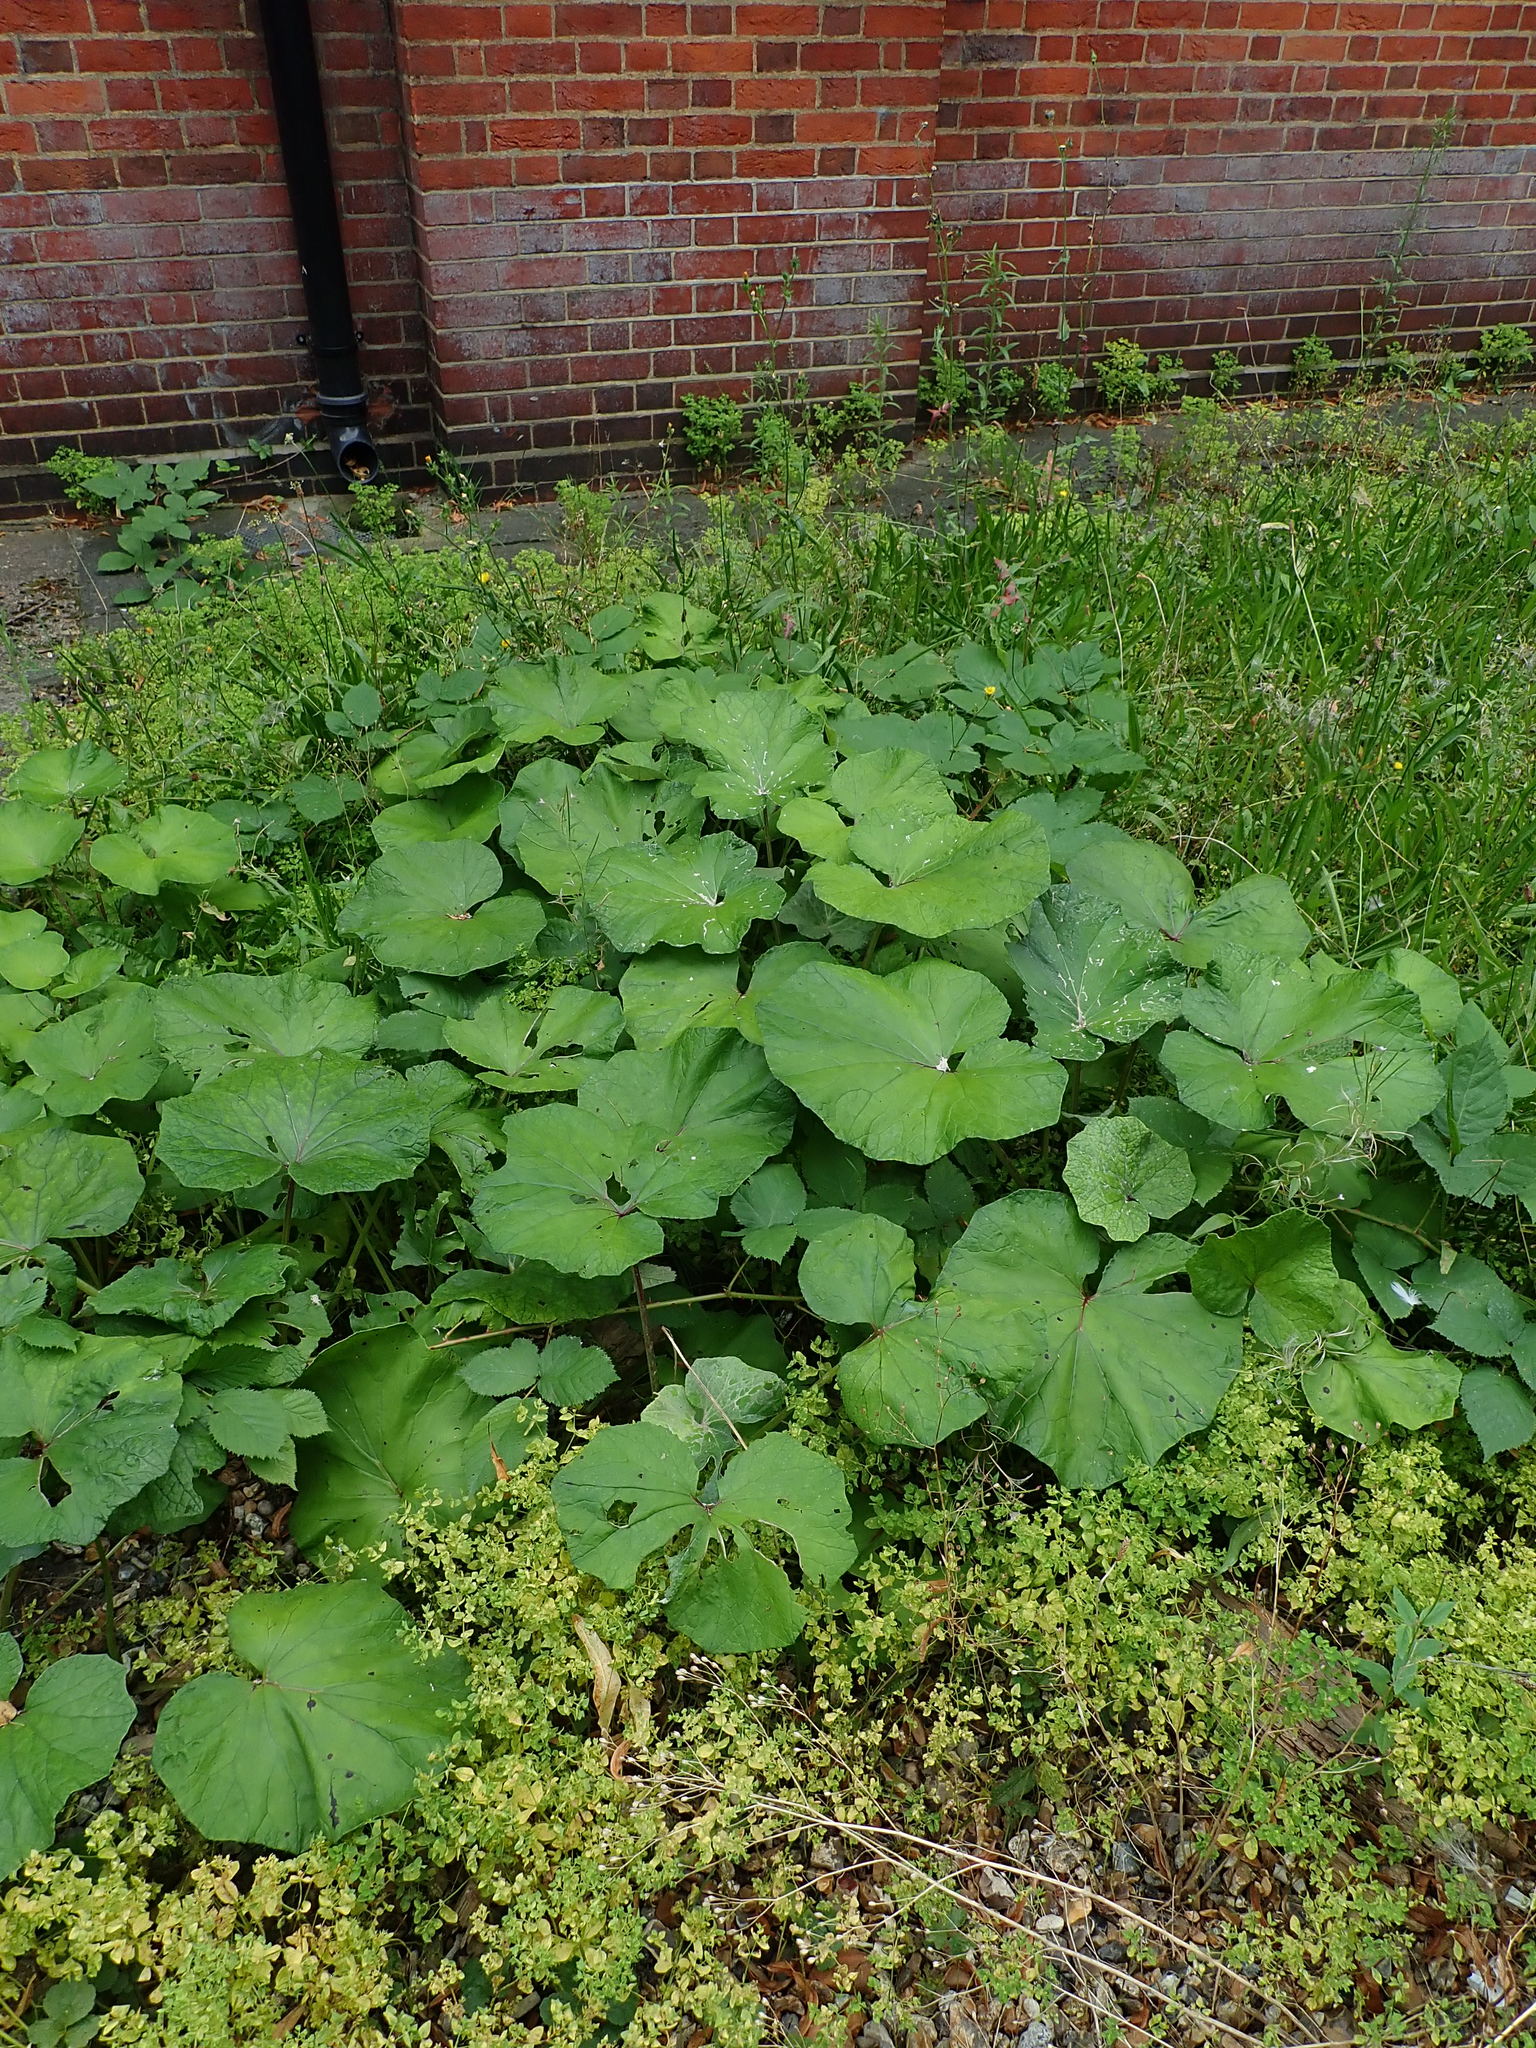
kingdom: Plantae
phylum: Tracheophyta
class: Magnoliopsida
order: Asterales
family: Asteraceae
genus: Tussilago
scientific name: Tussilago farfara
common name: Coltsfoot
